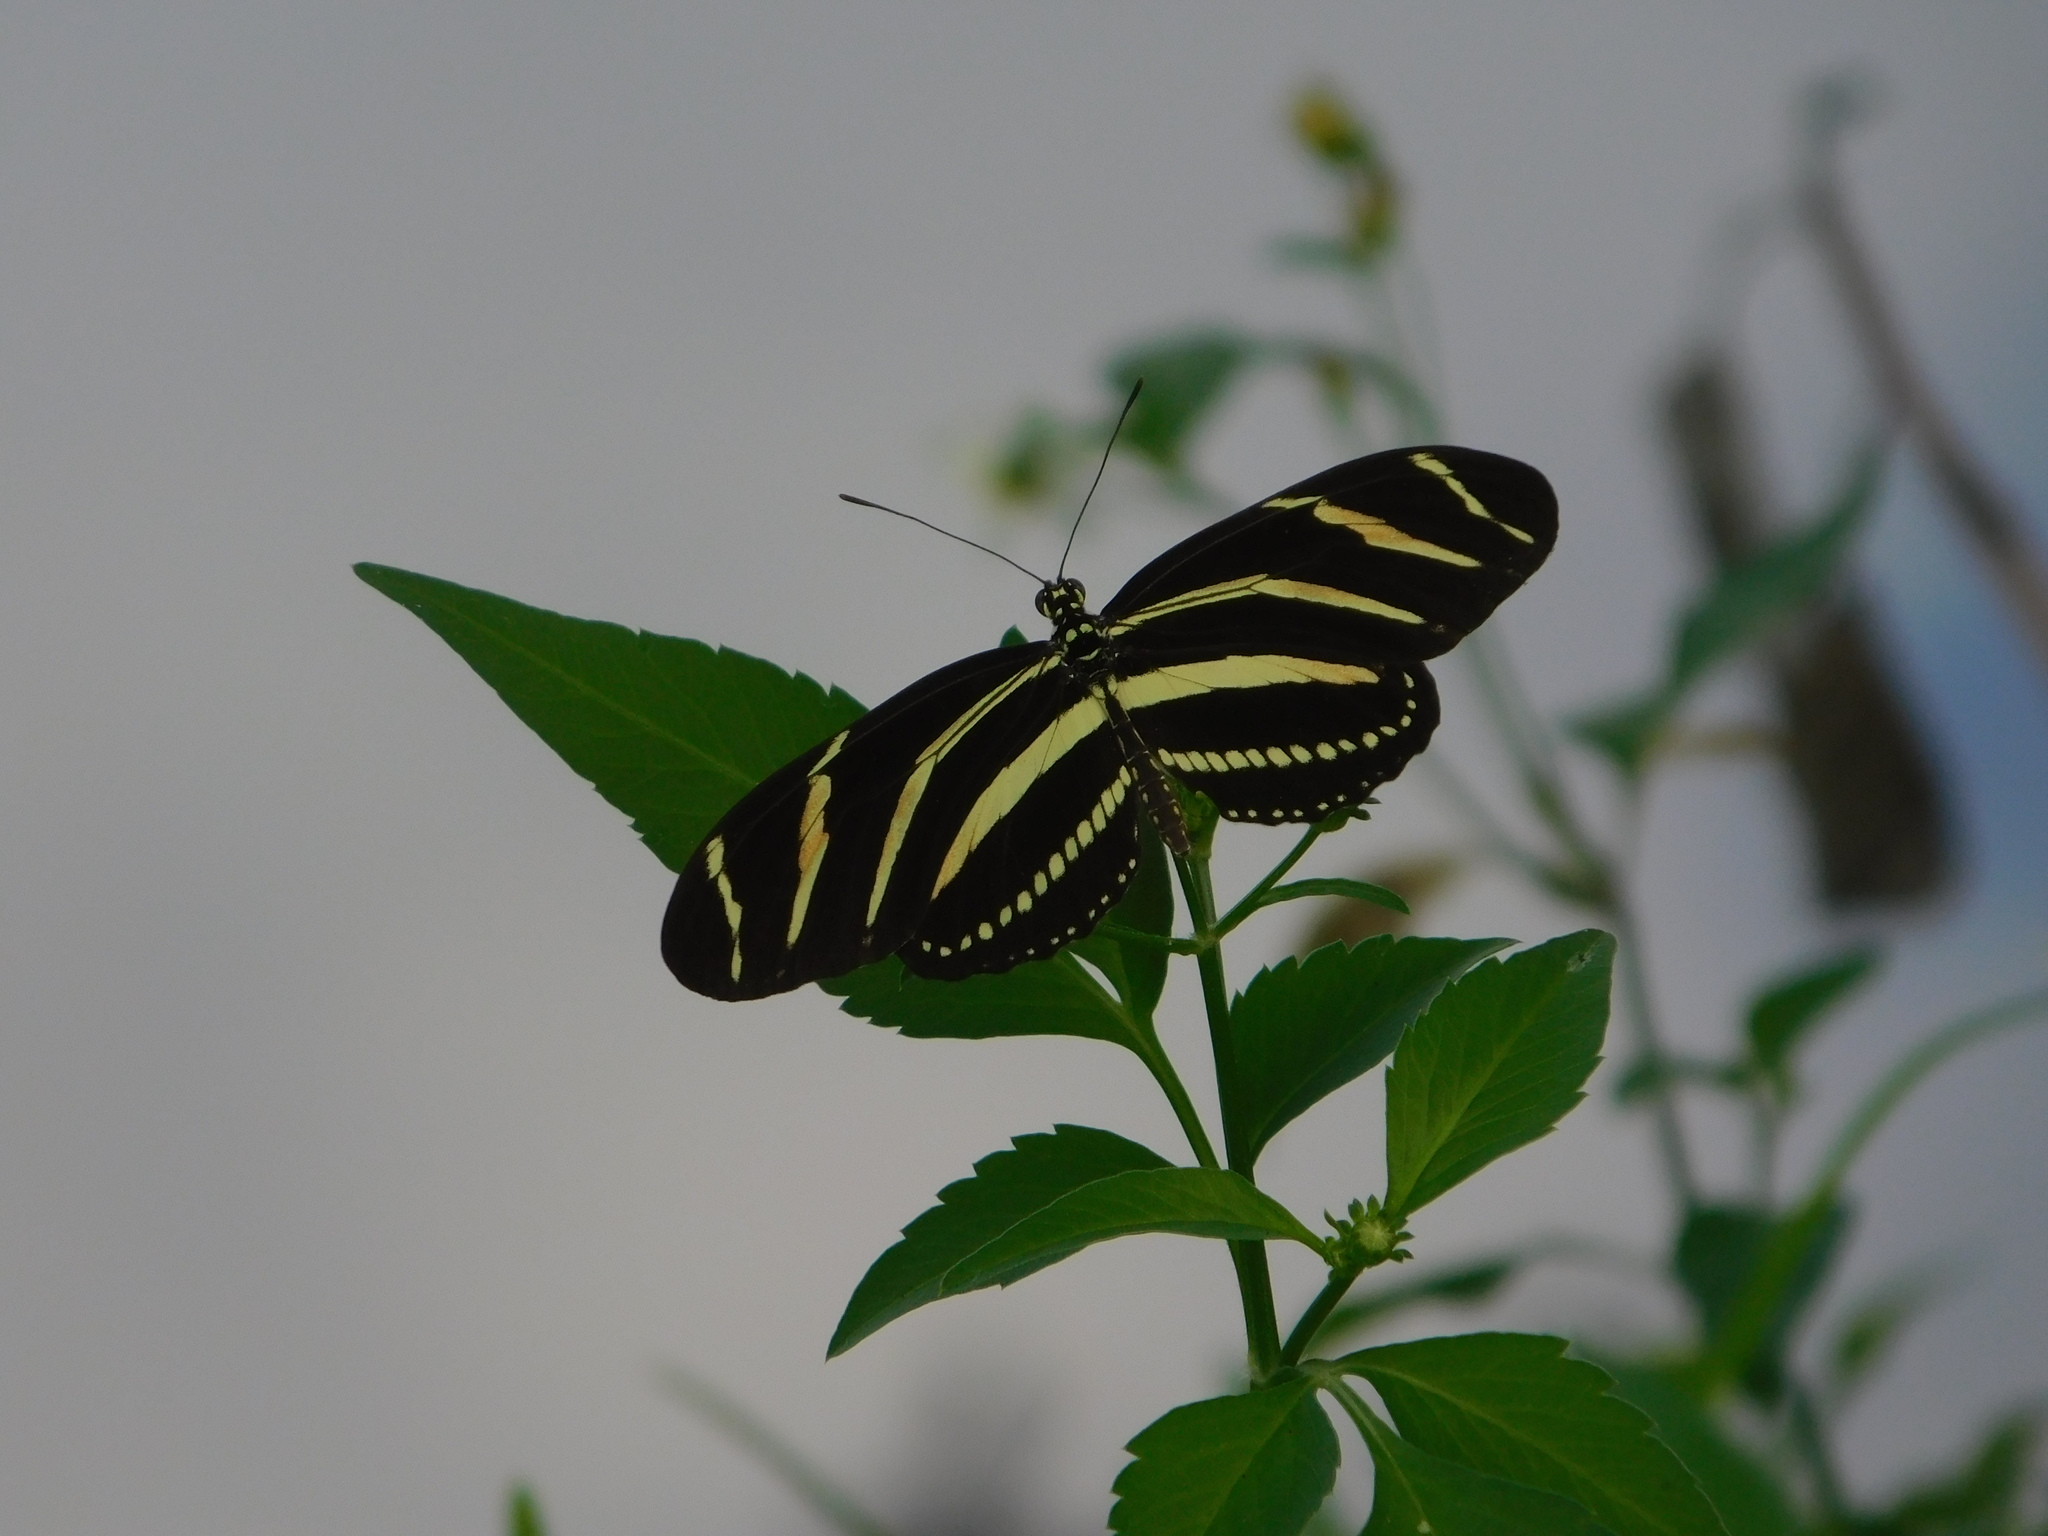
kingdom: Animalia
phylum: Arthropoda
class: Insecta
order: Lepidoptera
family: Nymphalidae
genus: Heliconius
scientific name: Heliconius charithonia
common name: Zebra long wing
